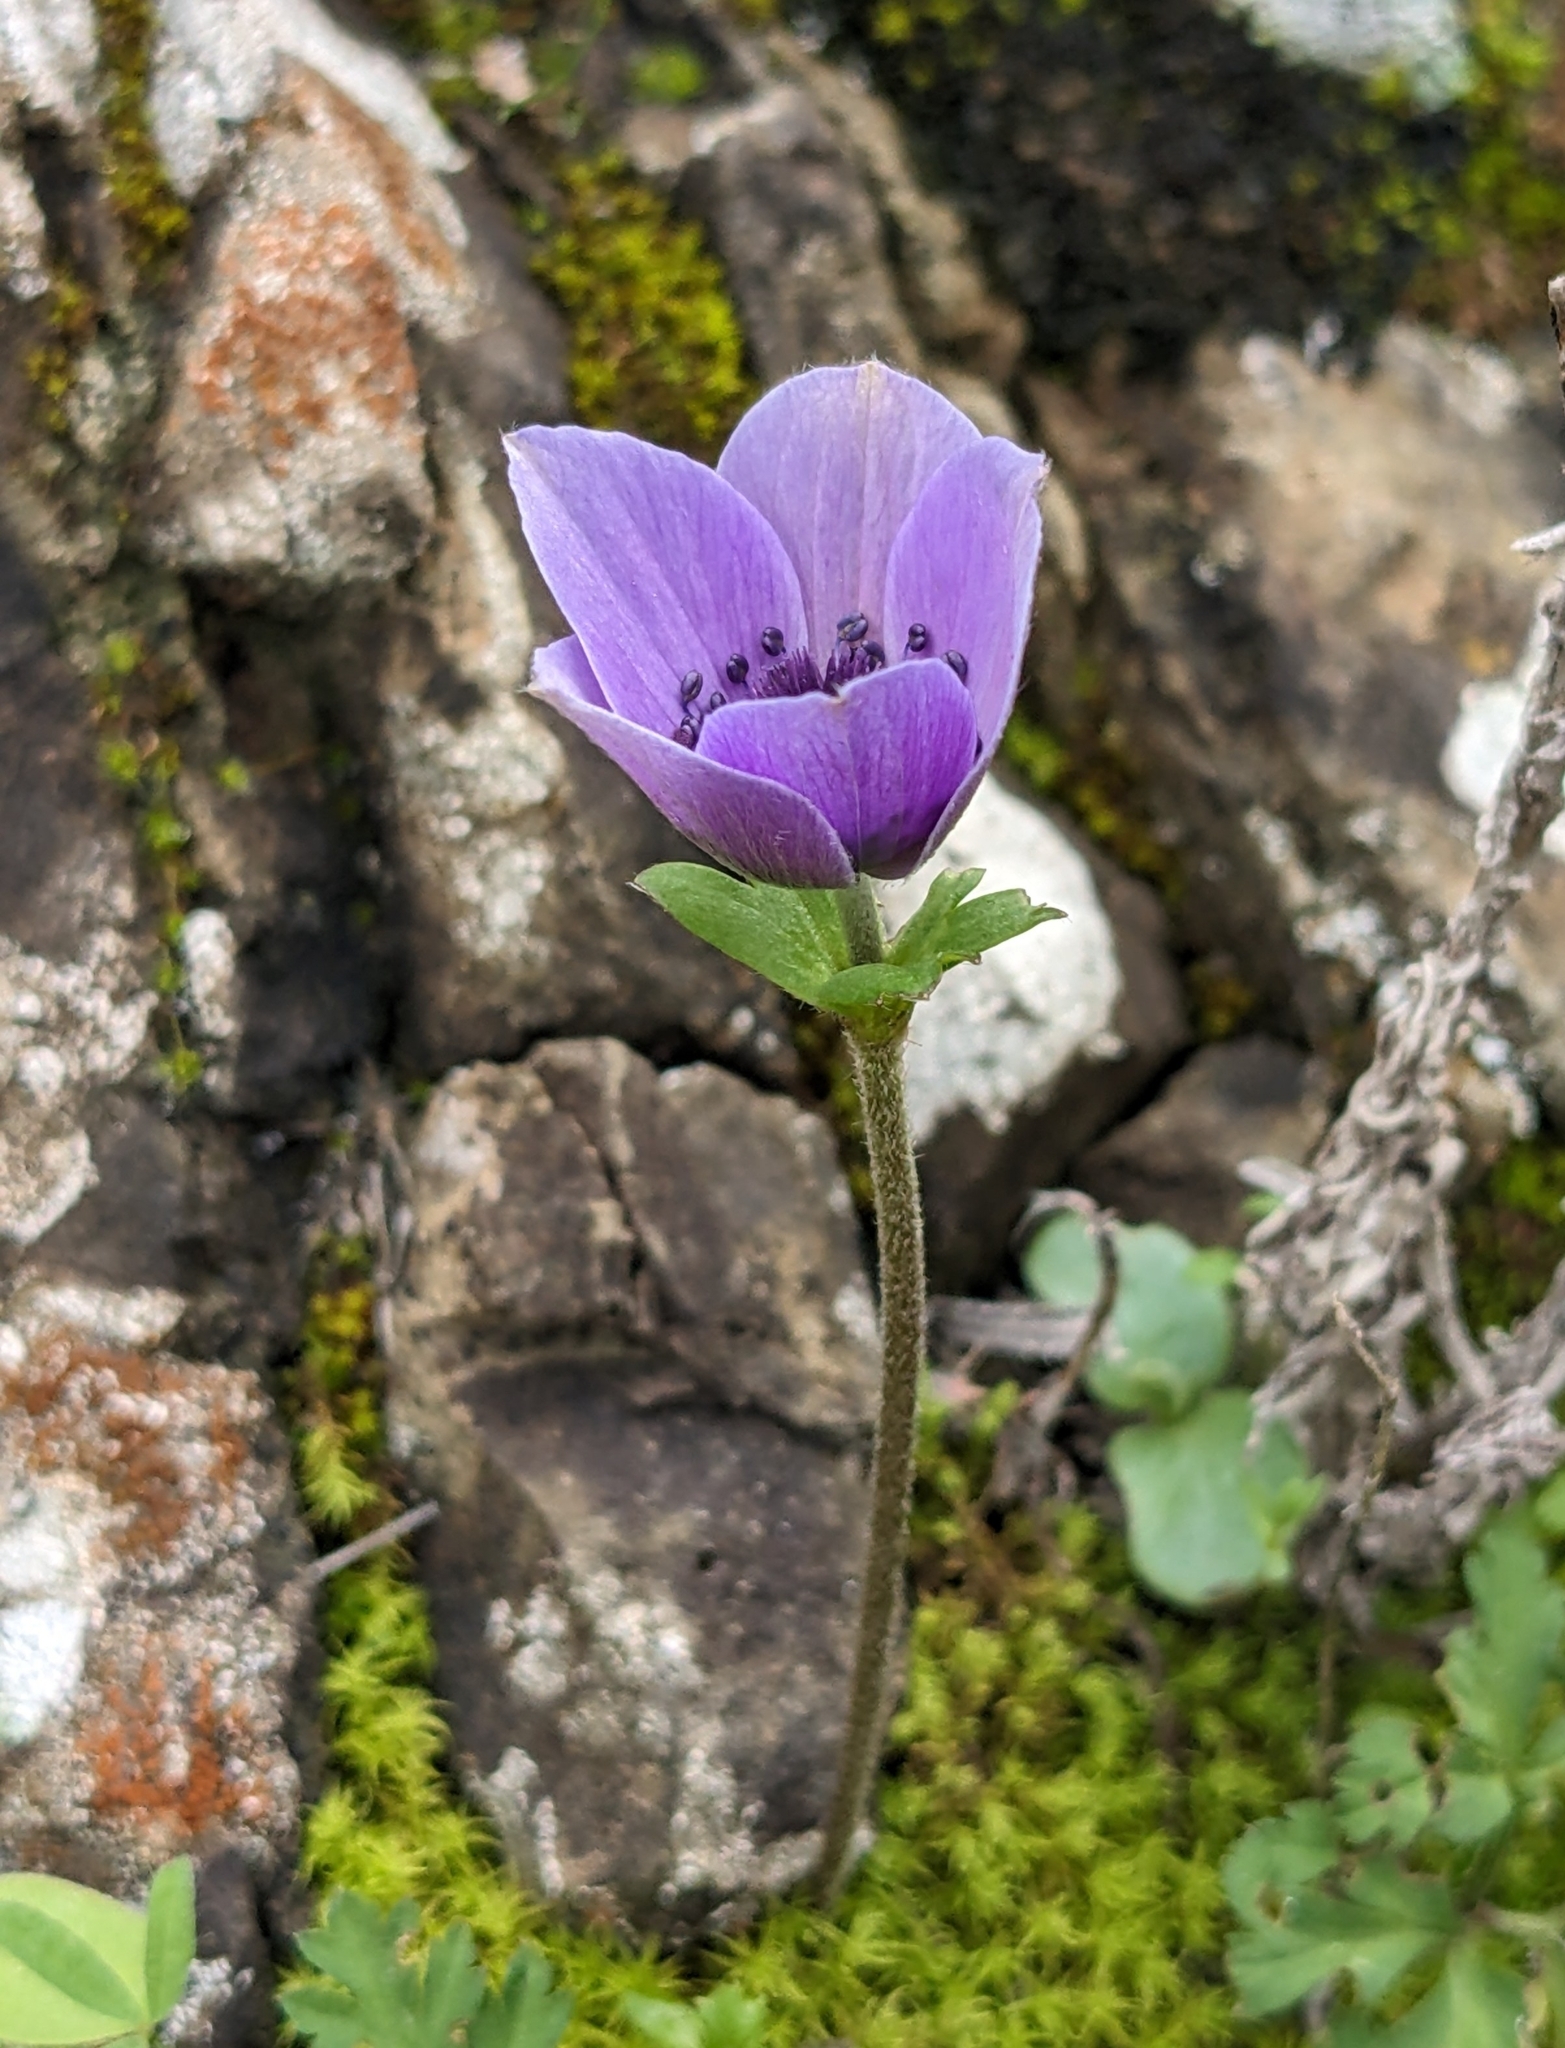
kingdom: Plantae
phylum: Tracheophyta
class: Magnoliopsida
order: Ranunculales
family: Ranunculaceae
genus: Anemone
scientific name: Anemone coronaria
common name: Poppy anemone
